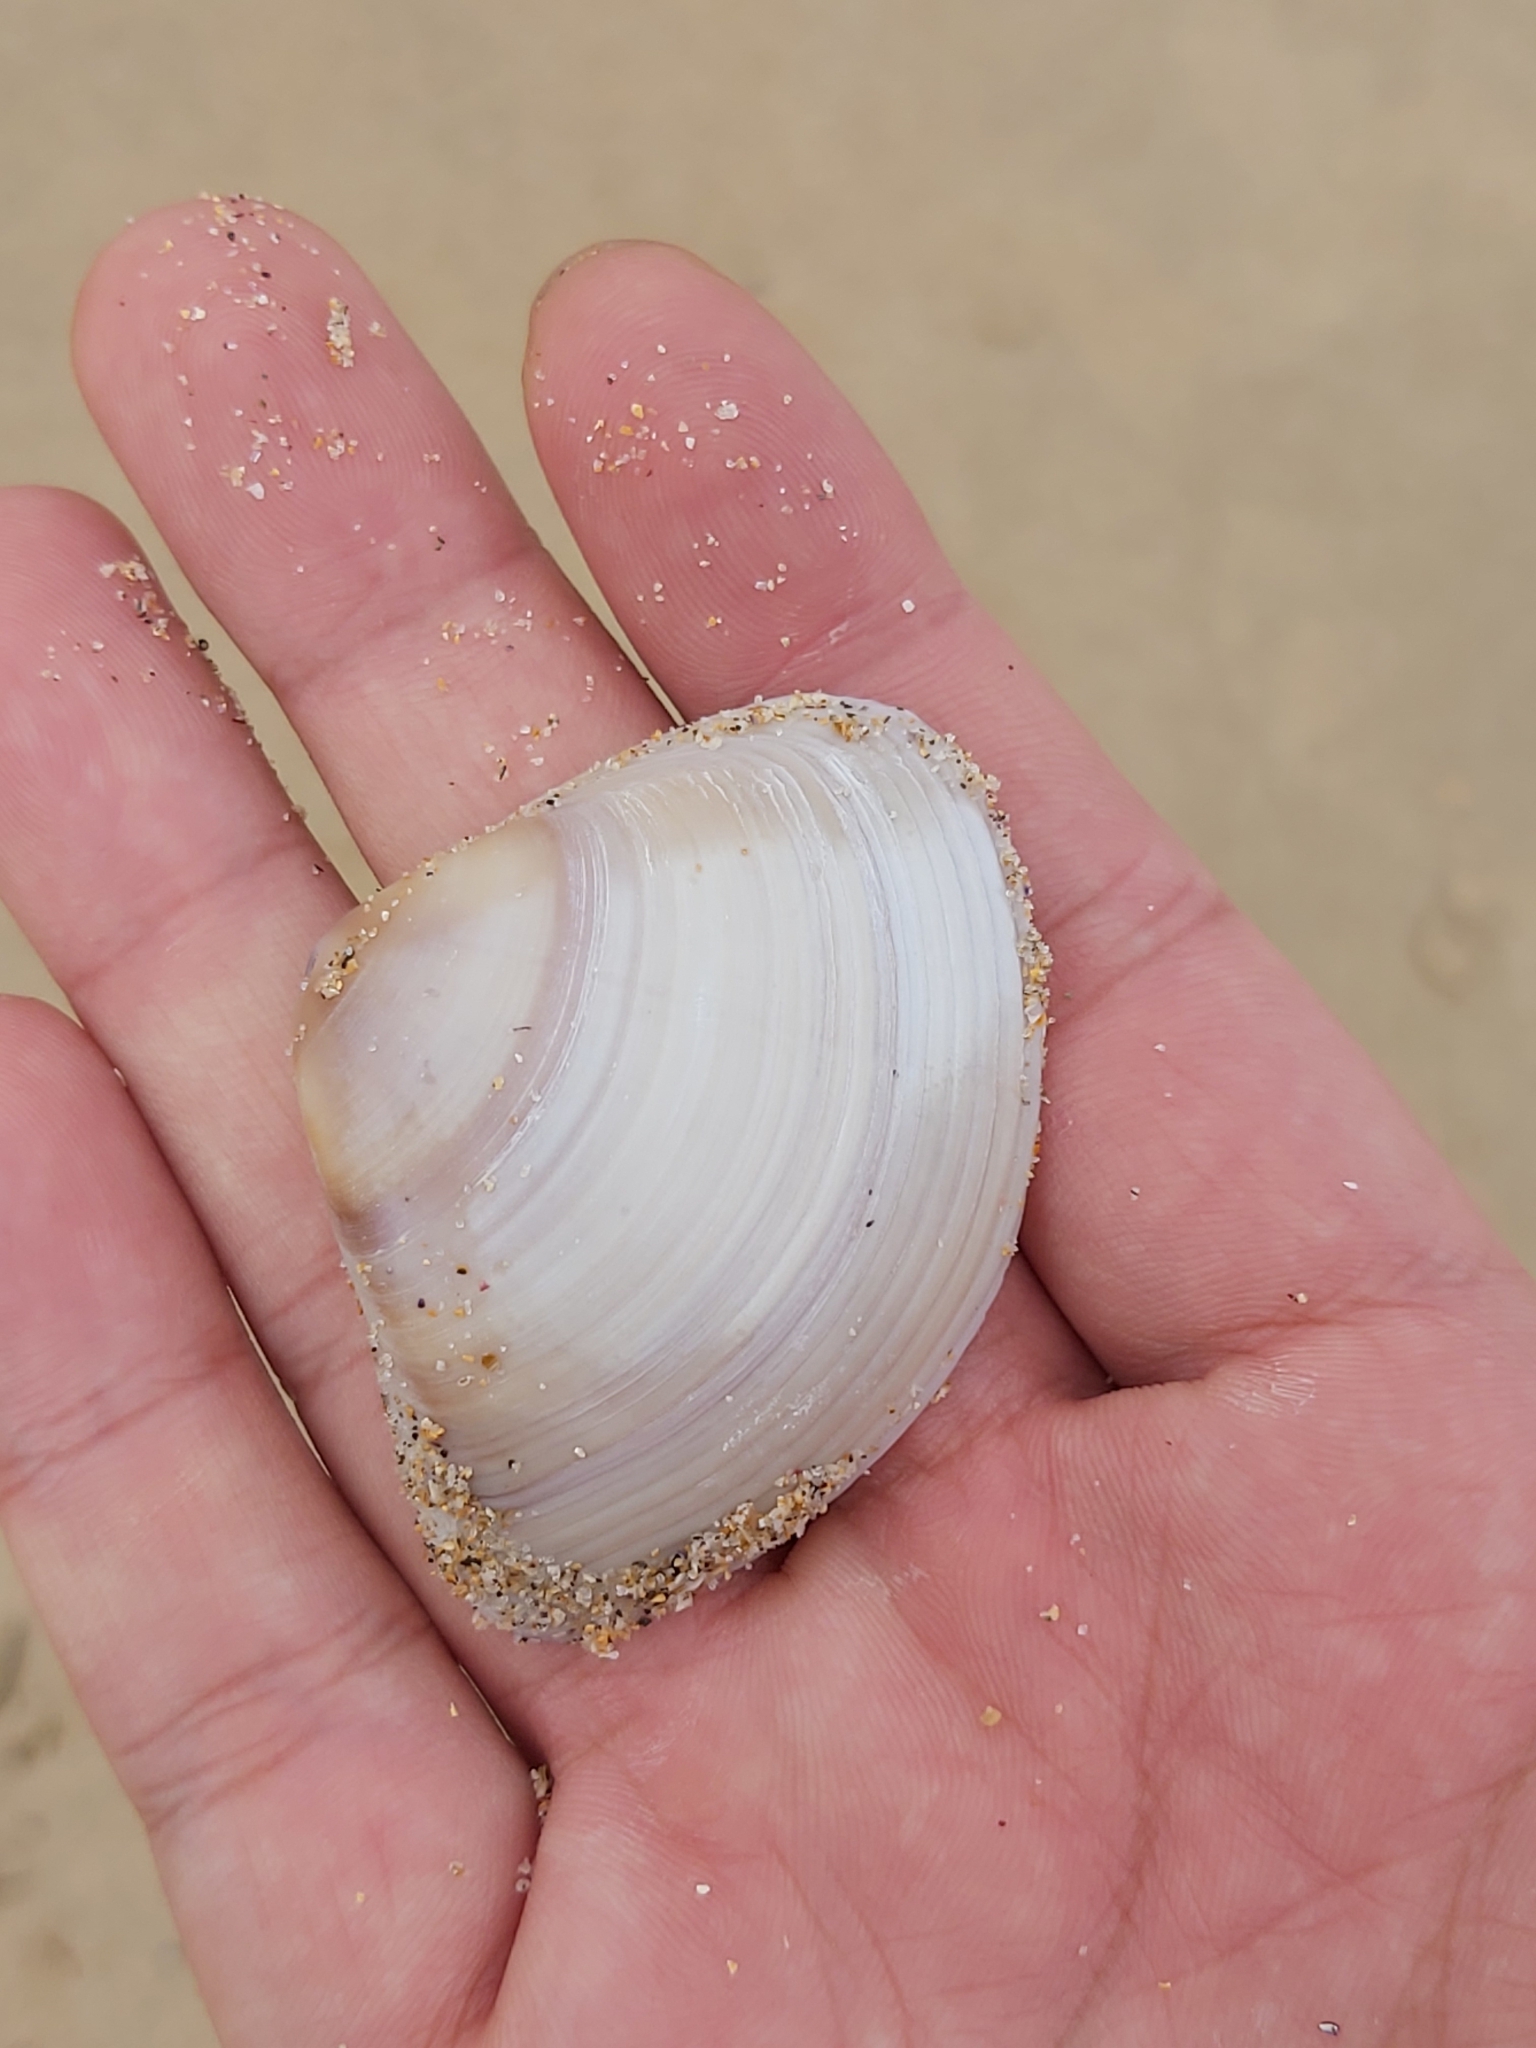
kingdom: Animalia
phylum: Mollusca
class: Bivalvia
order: Venerida
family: Mactridae
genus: Austromactra
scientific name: Austromactra rufescens
